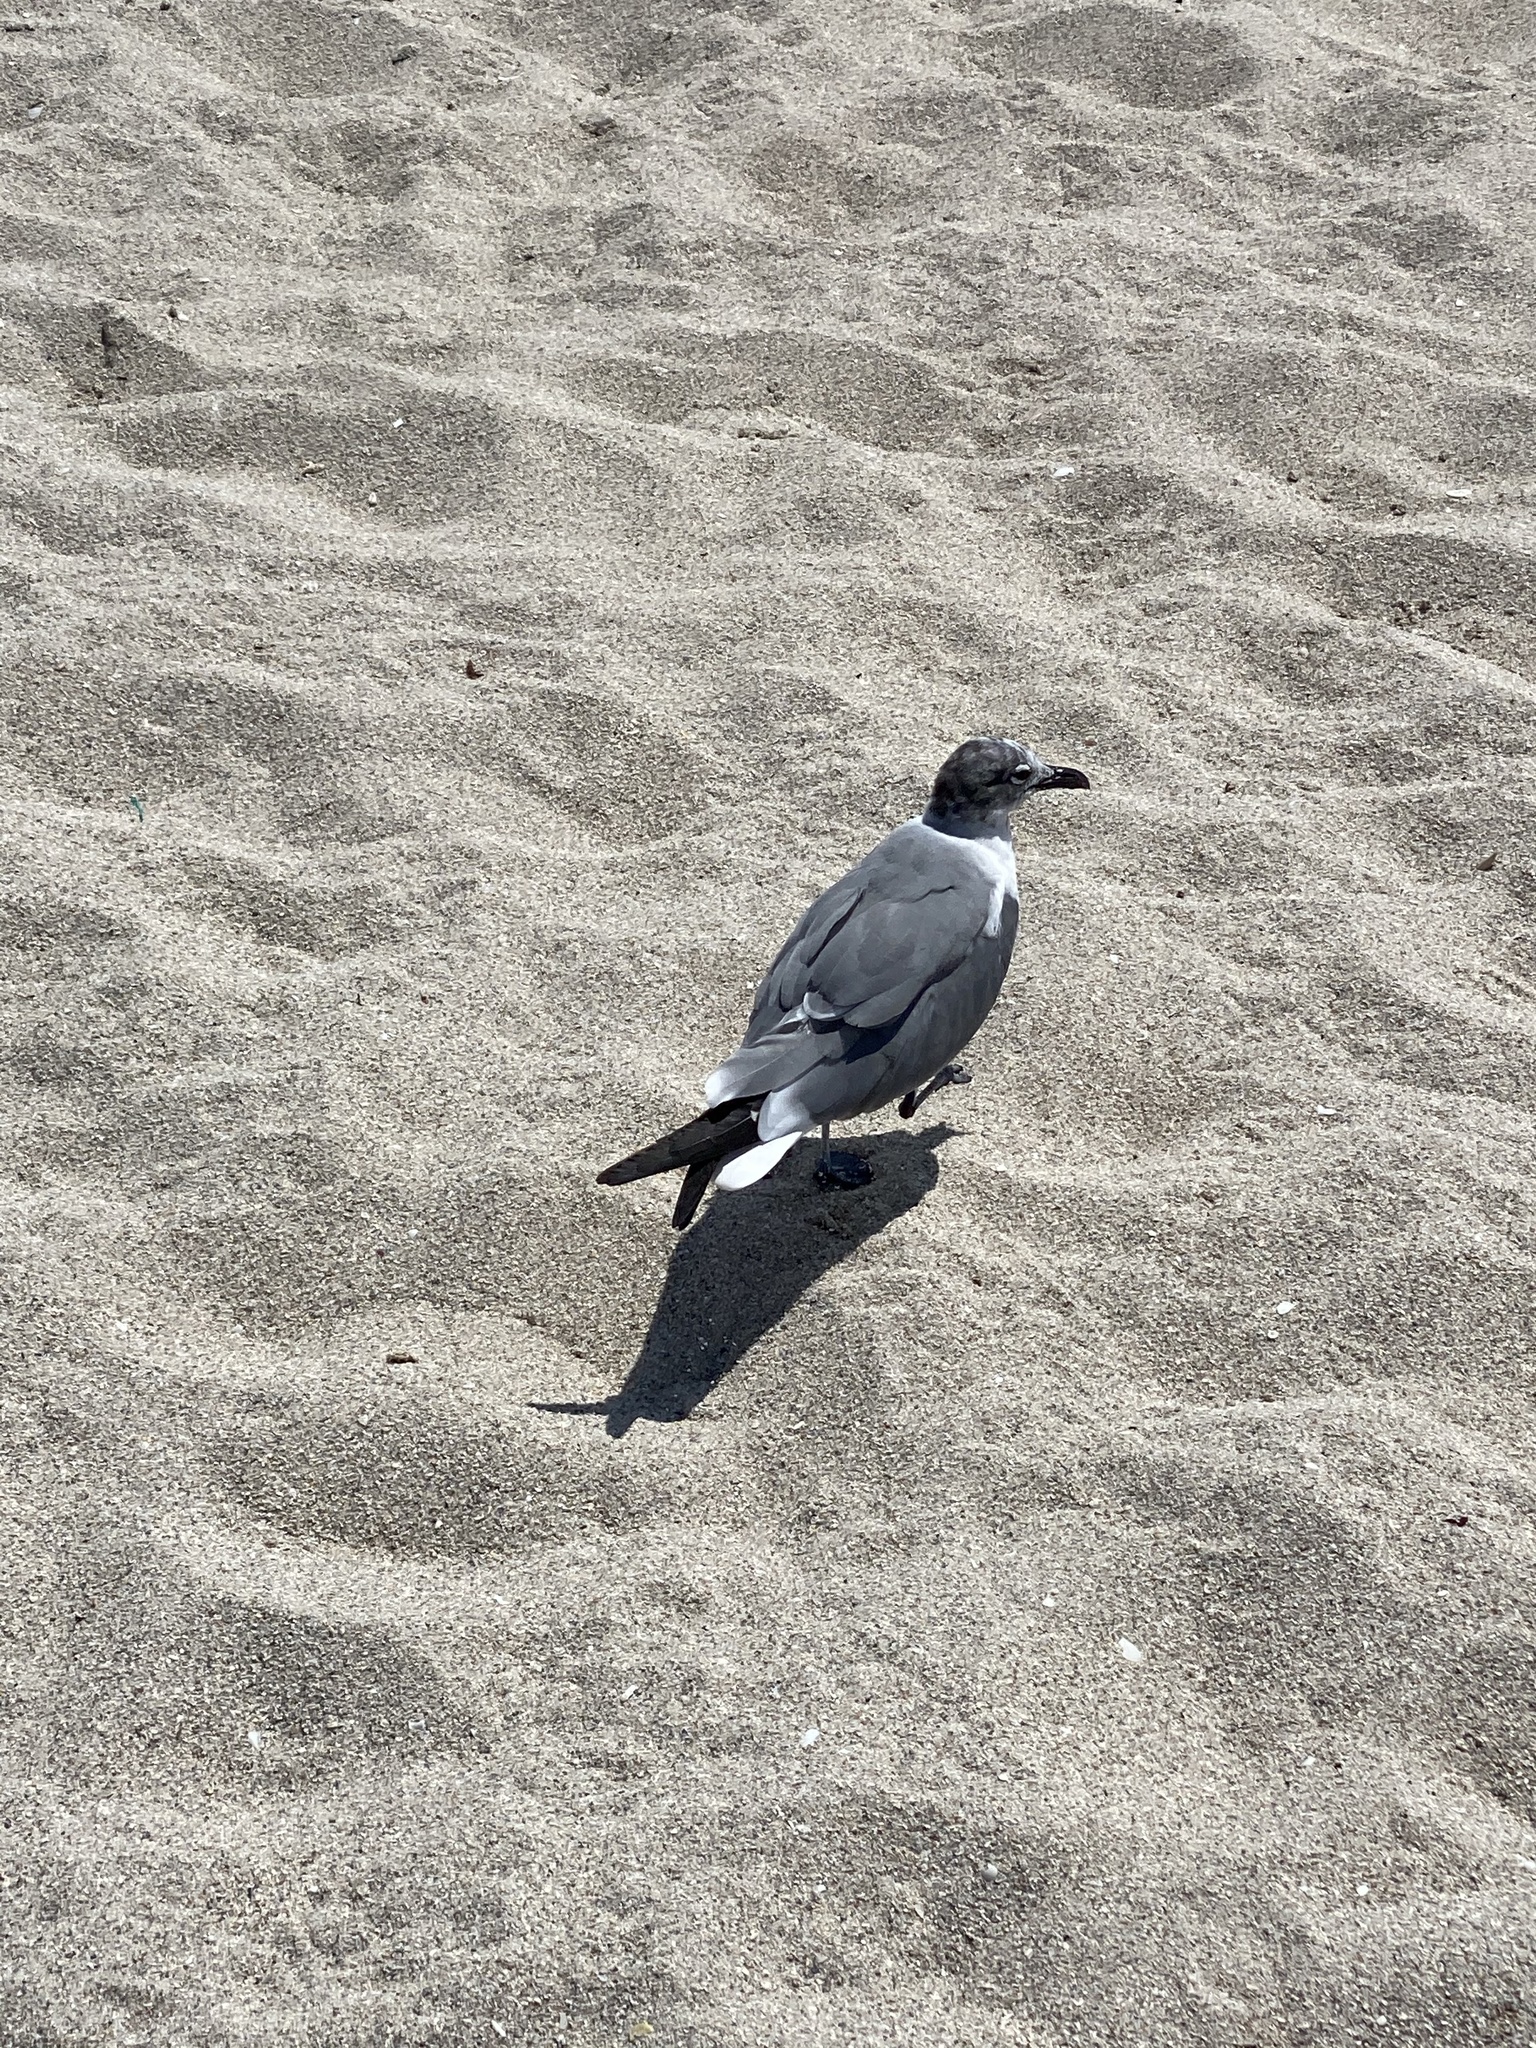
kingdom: Animalia
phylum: Chordata
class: Aves
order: Charadriiformes
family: Laridae
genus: Leucophaeus
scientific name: Leucophaeus atricilla
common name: Laughing gull
